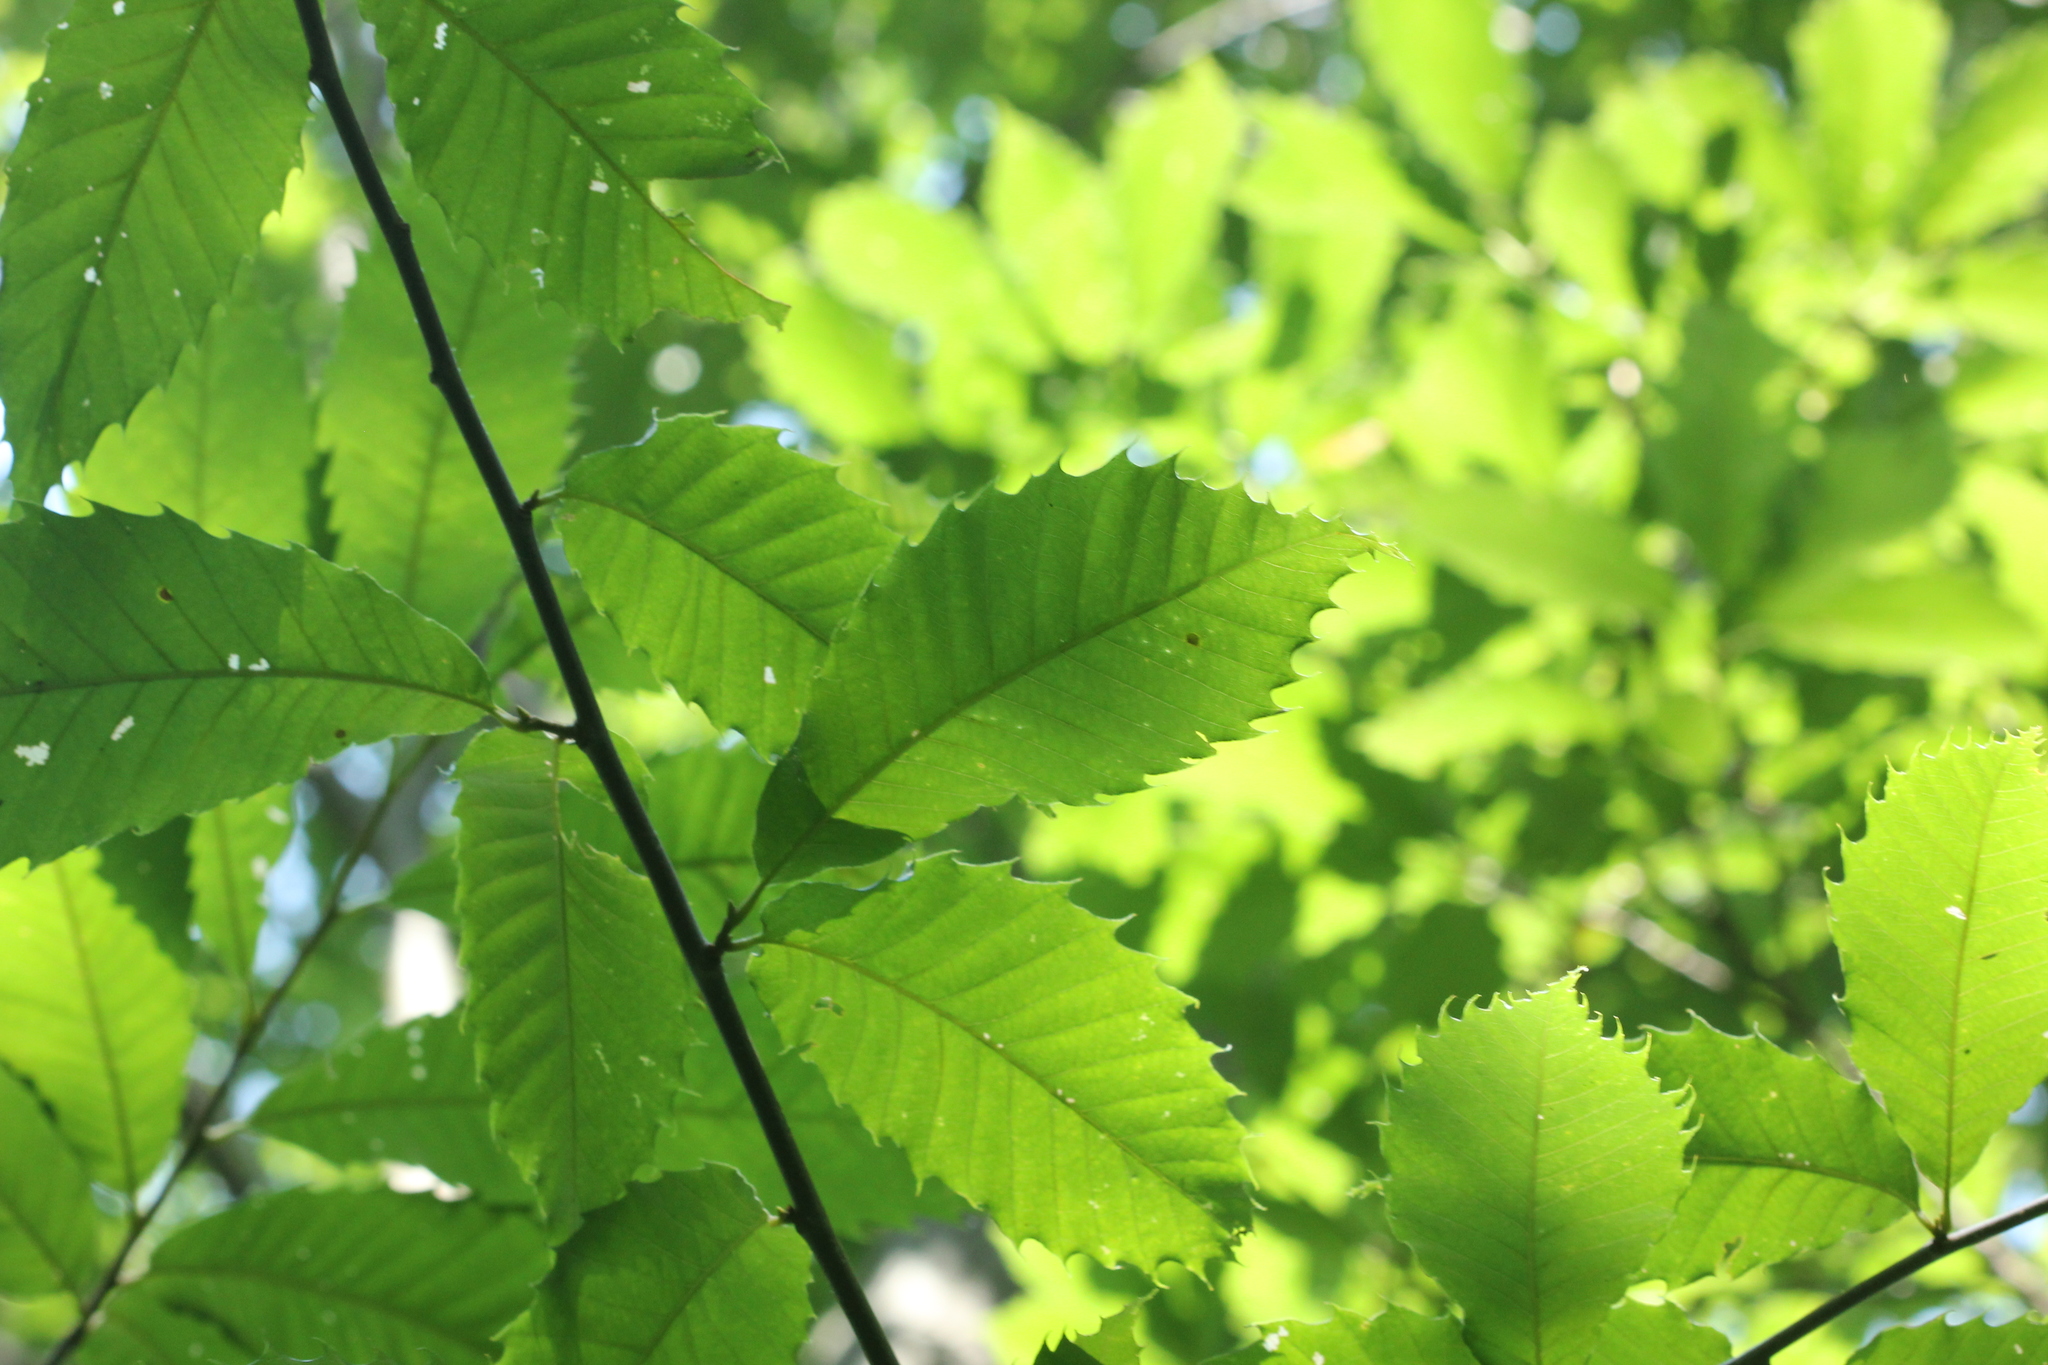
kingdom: Plantae
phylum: Tracheophyta
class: Magnoliopsida
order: Fagales
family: Fagaceae
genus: Castanea
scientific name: Castanea dentata
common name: American chestnut
